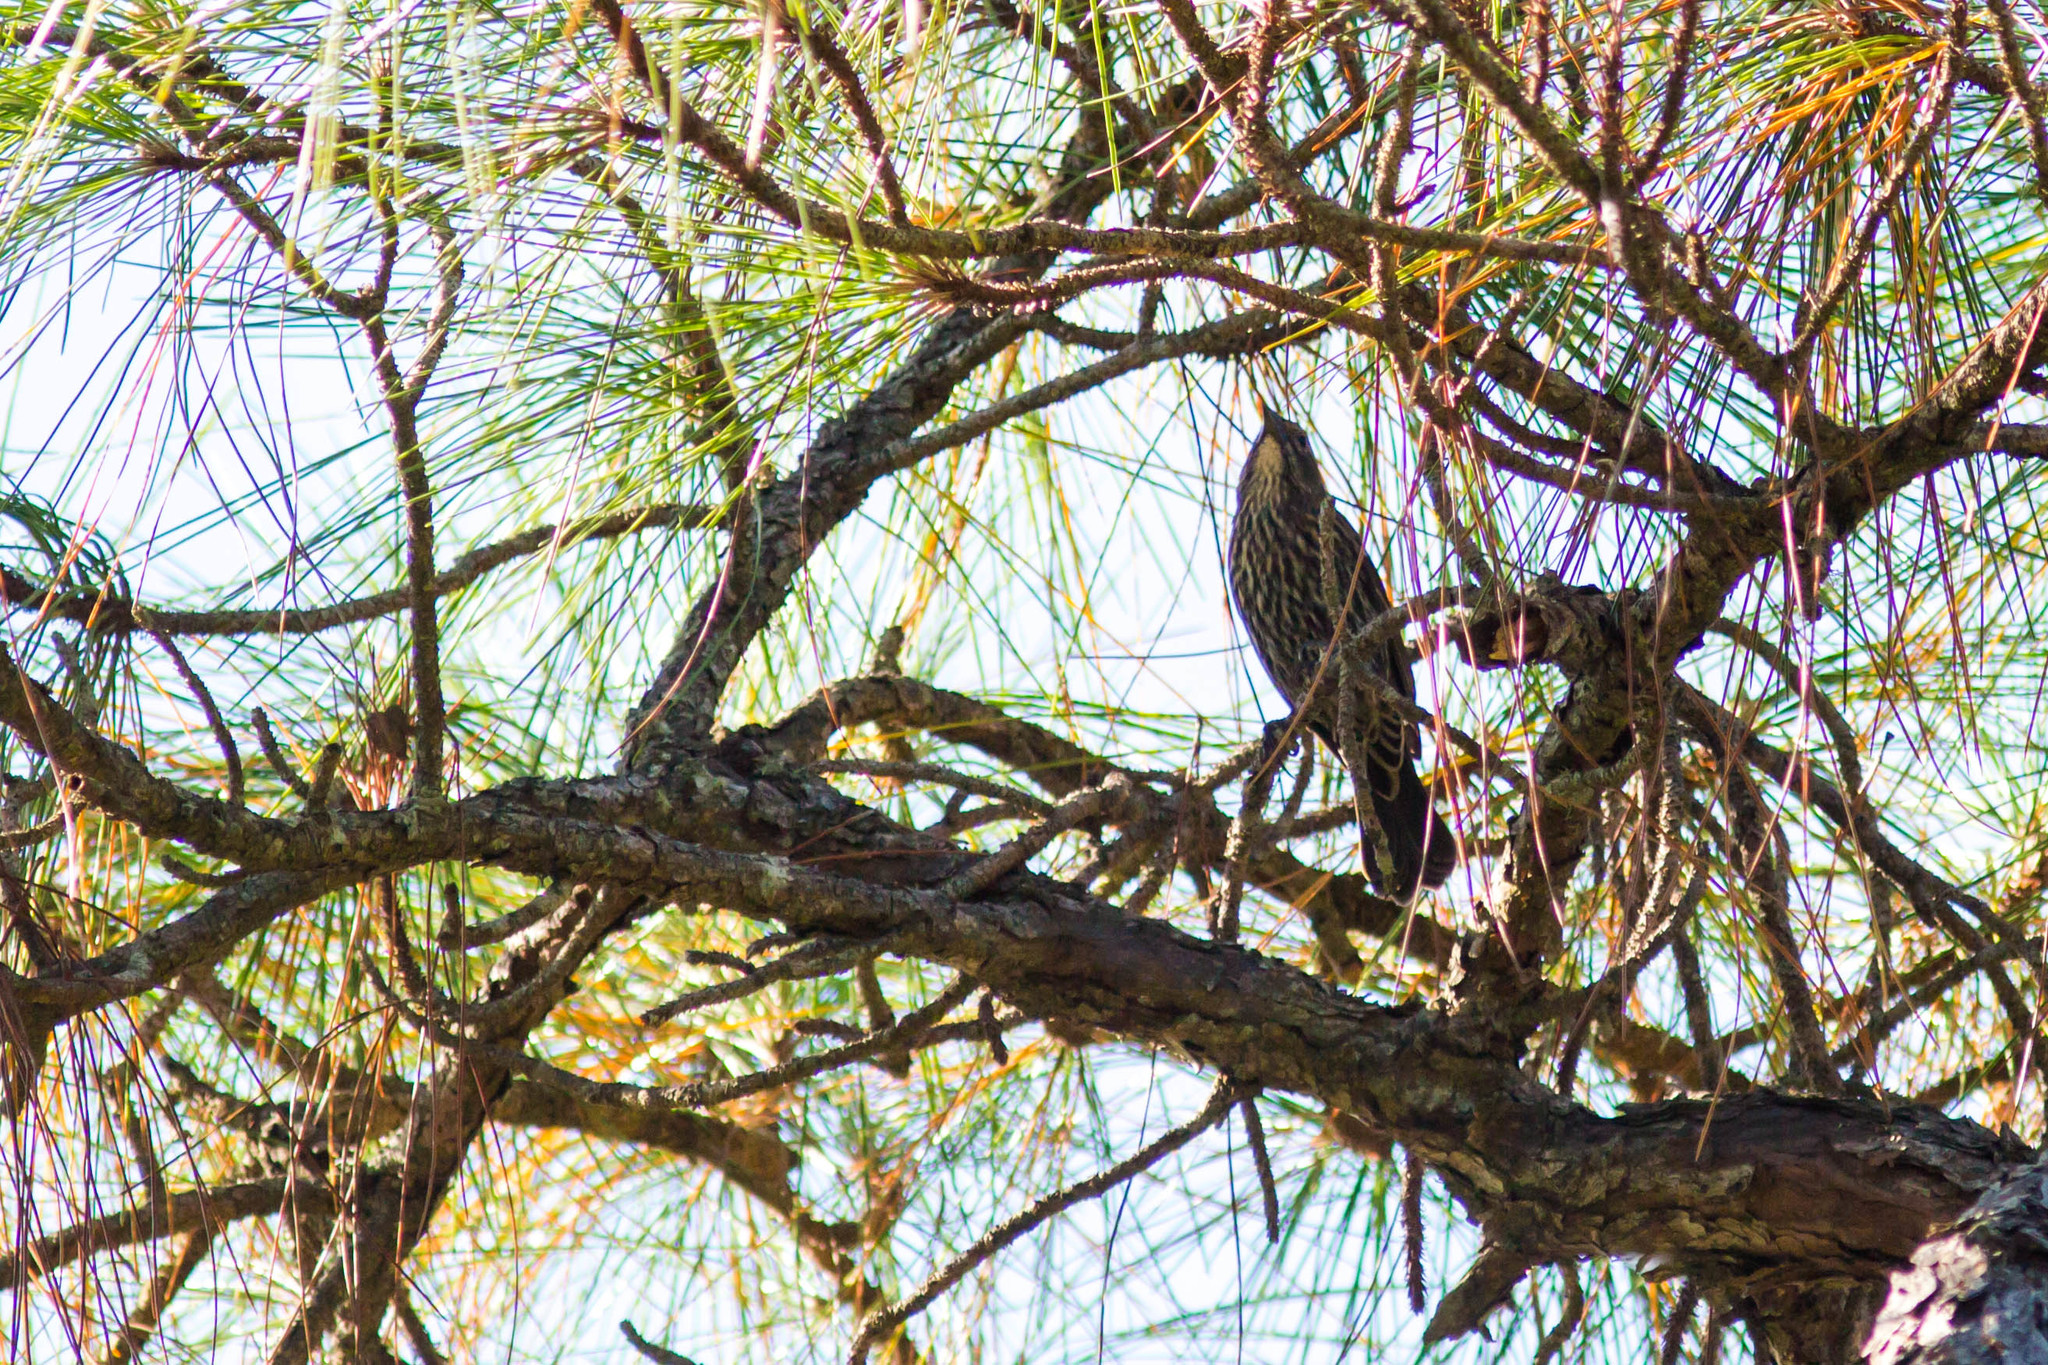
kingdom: Animalia
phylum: Chordata
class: Aves
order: Passeriformes
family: Icteridae
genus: Agelaius
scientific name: Agelaius phoeniceus
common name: Red-winged blackbird
